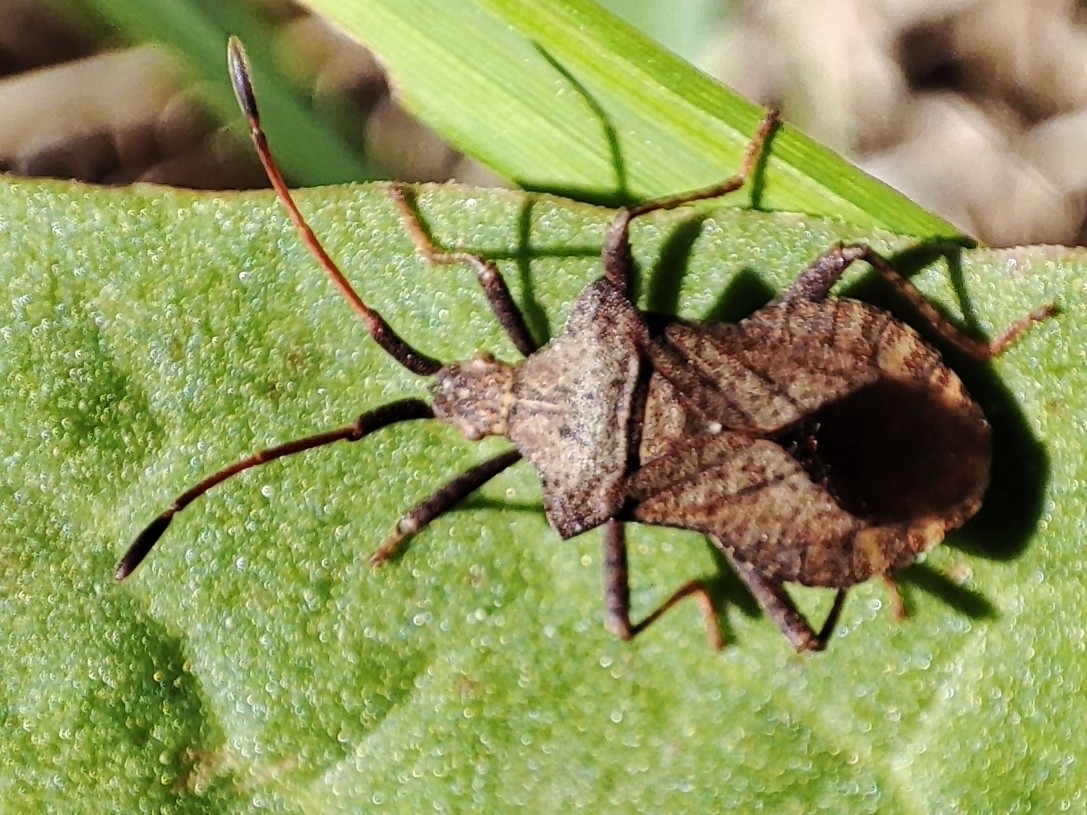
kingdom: Animalia
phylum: Arthropoda
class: Insecta
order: Hemiptera
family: Coreidae
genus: Coreus
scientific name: Coreus marginatus
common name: Dock bug
